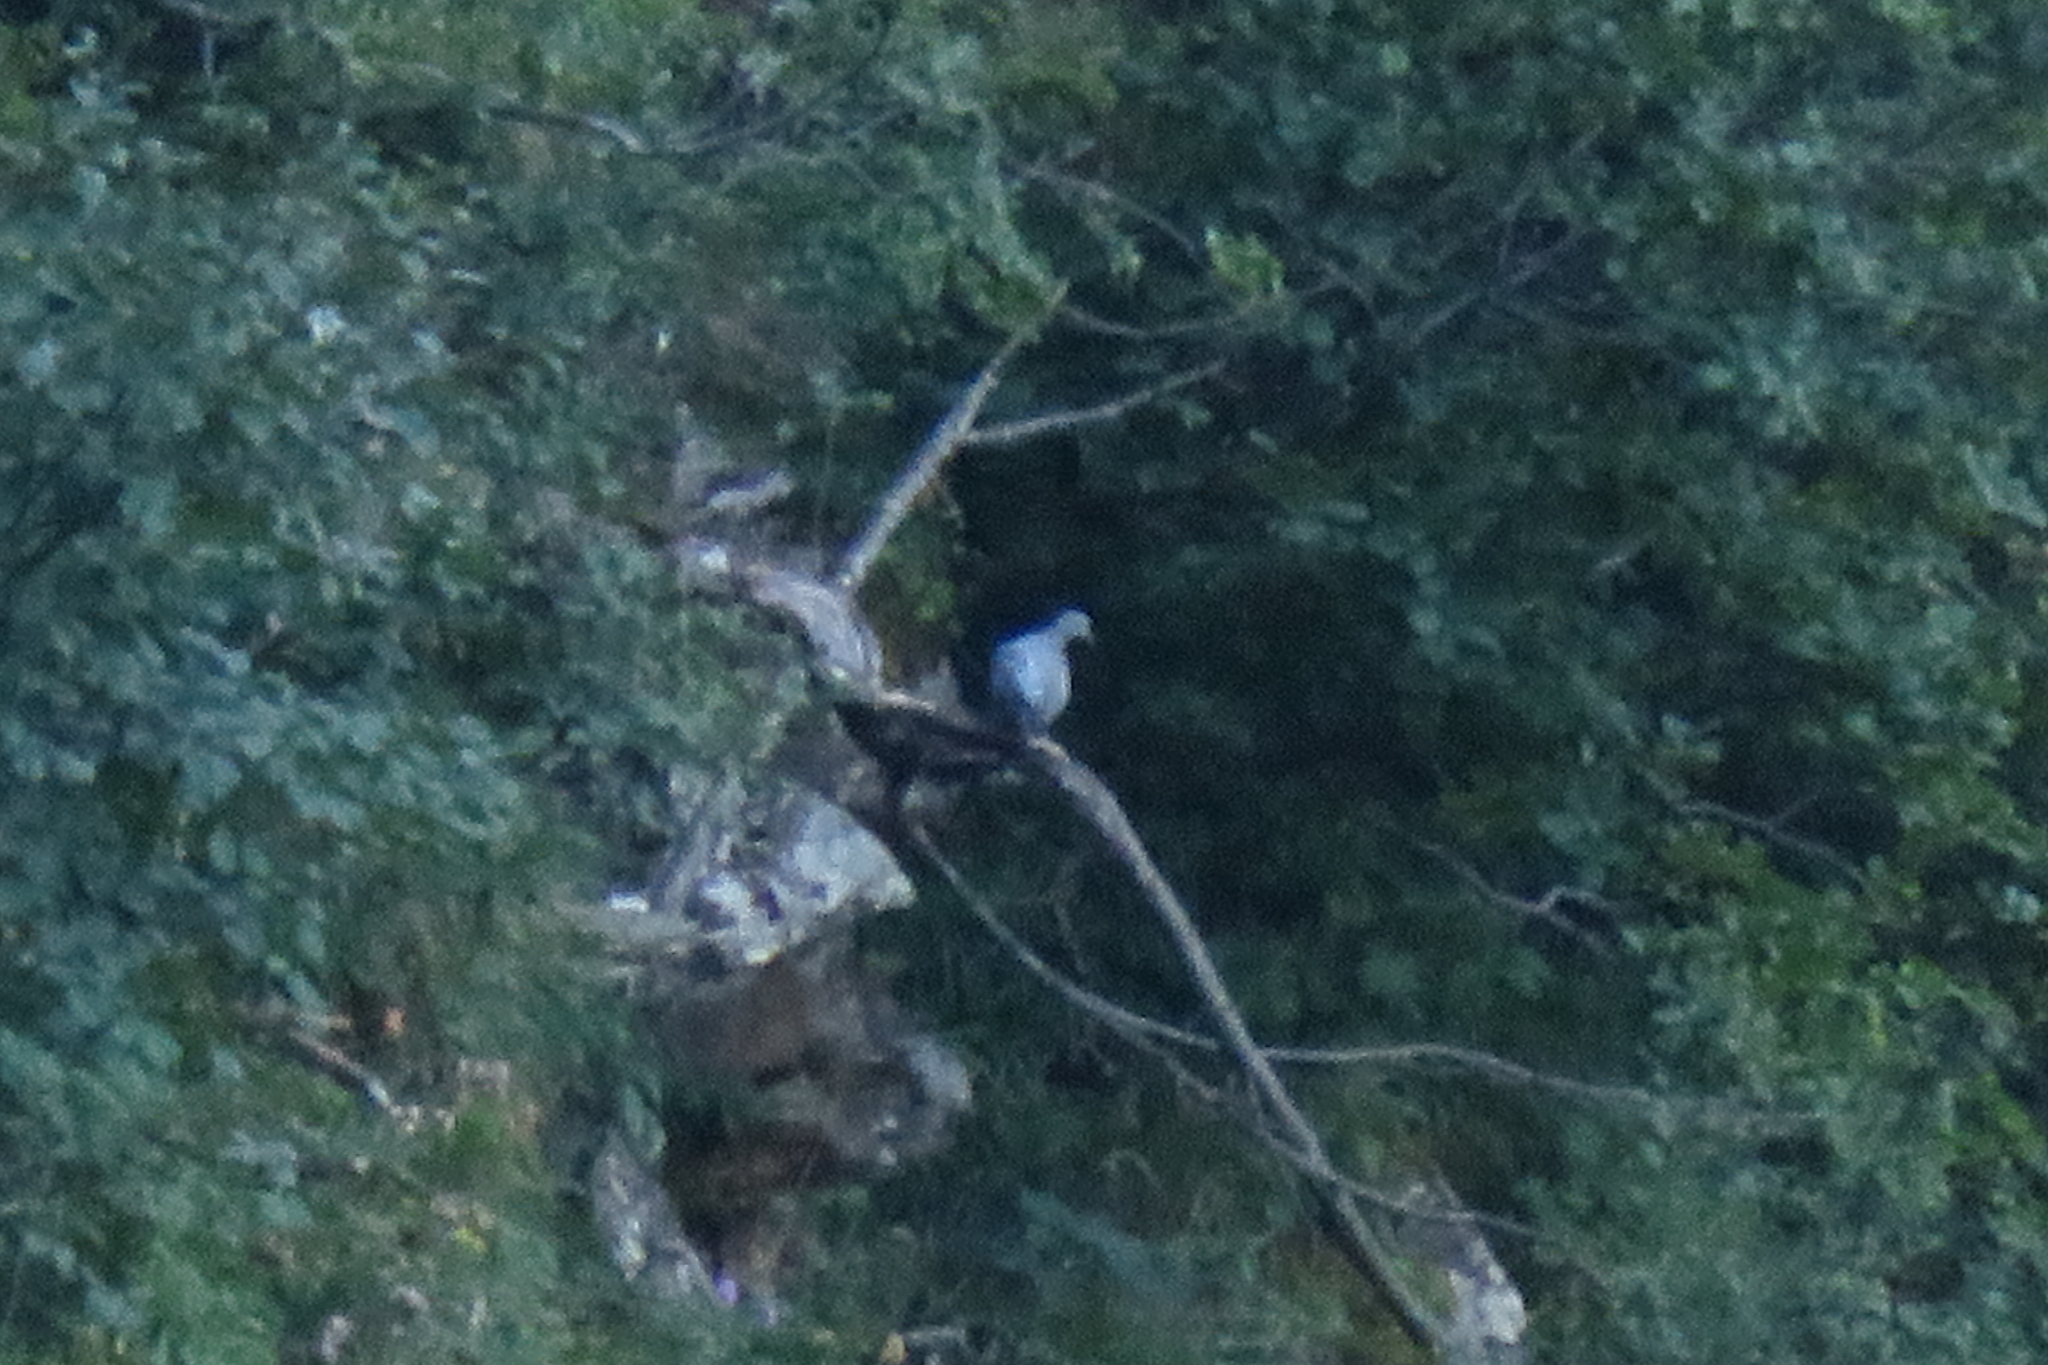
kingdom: Animalia
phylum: Chordata
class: Aves
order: Columbiformes
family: Columbidae
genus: Columba
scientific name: Columba palumbus
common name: Common wood pigeon
